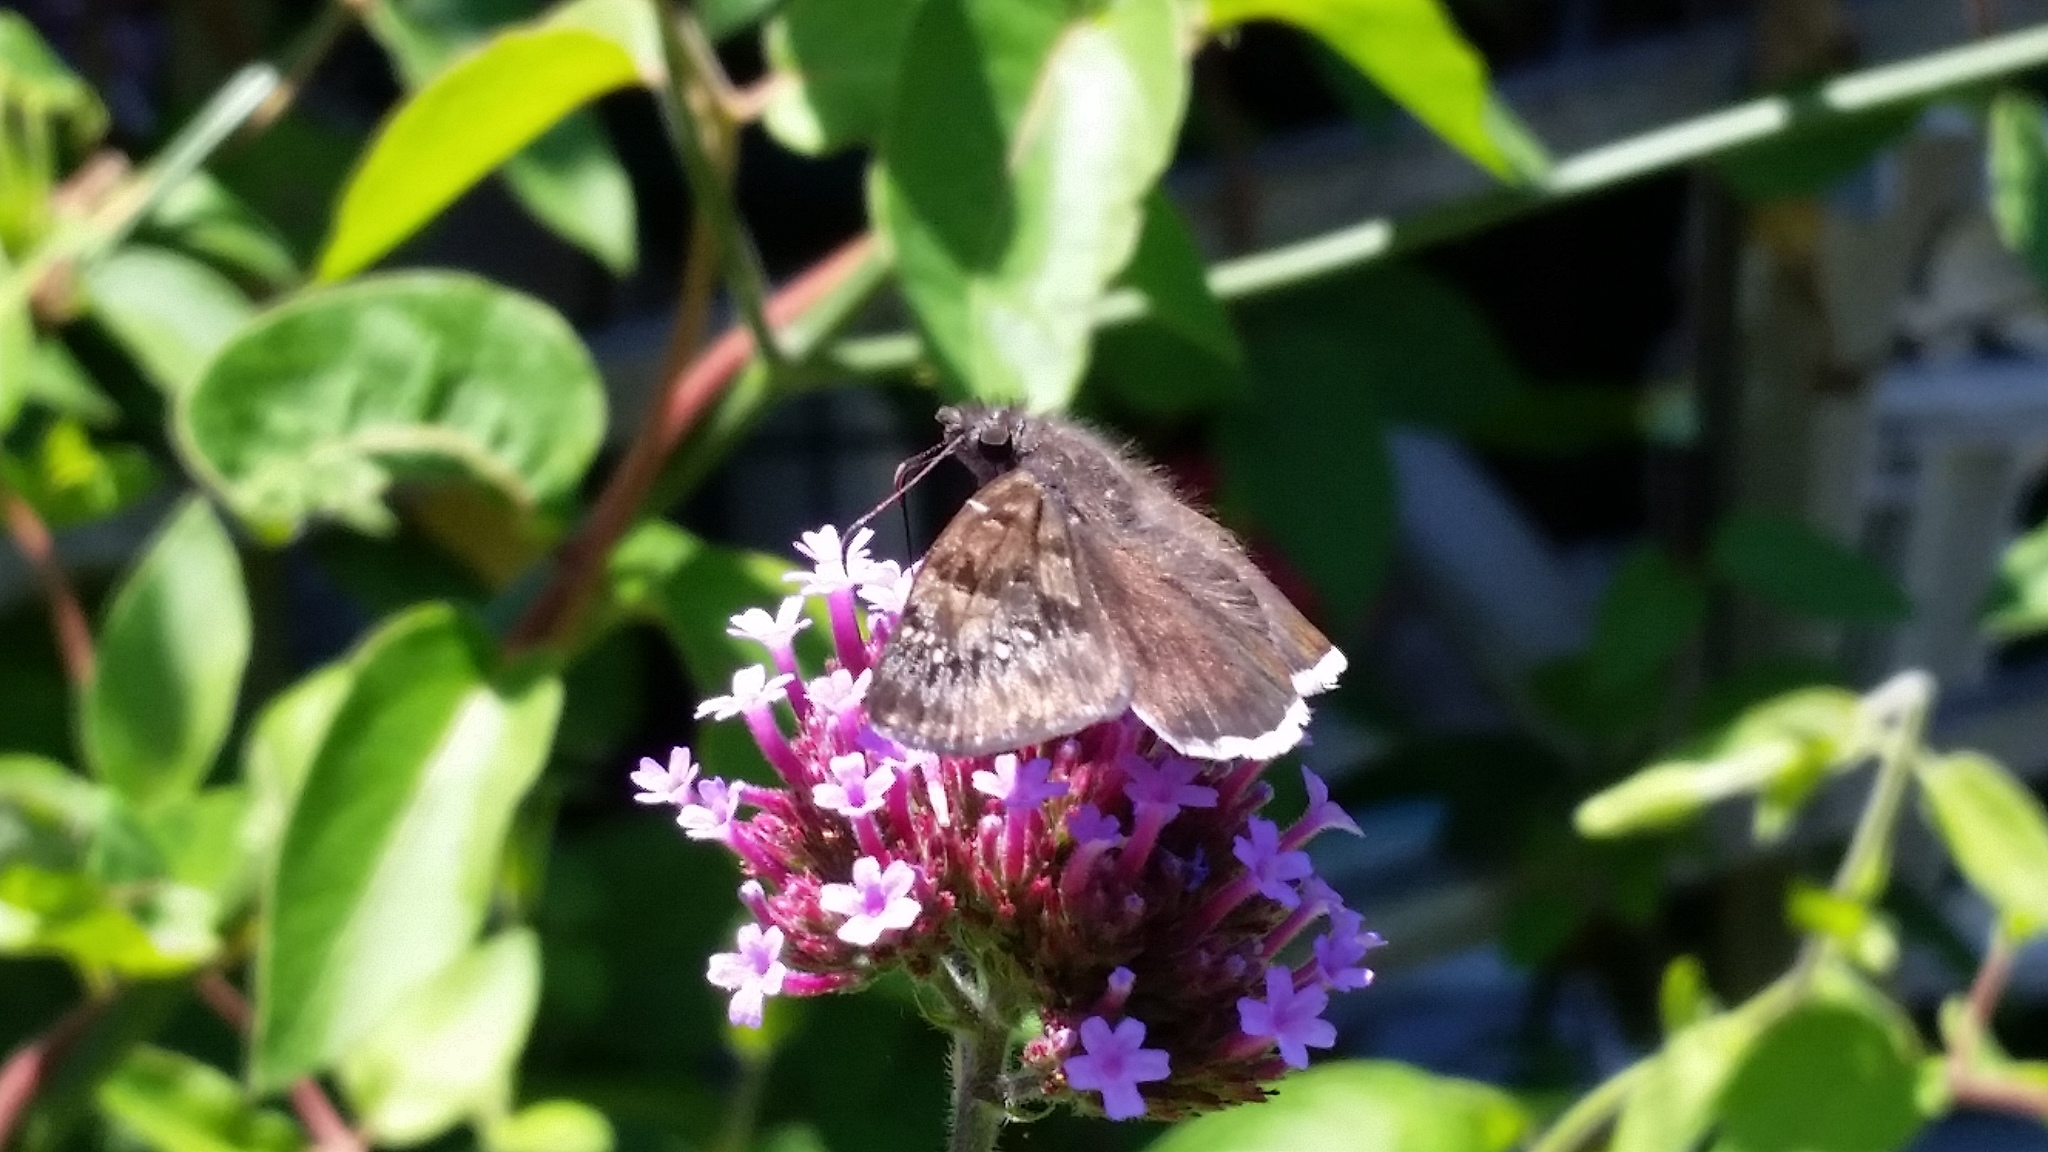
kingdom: Animalia
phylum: Arthropoda
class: Insecta
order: Lepidoptera
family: Hesperiidae
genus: Erynnis
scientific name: Erynnis tristis
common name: Mournful duskywing
